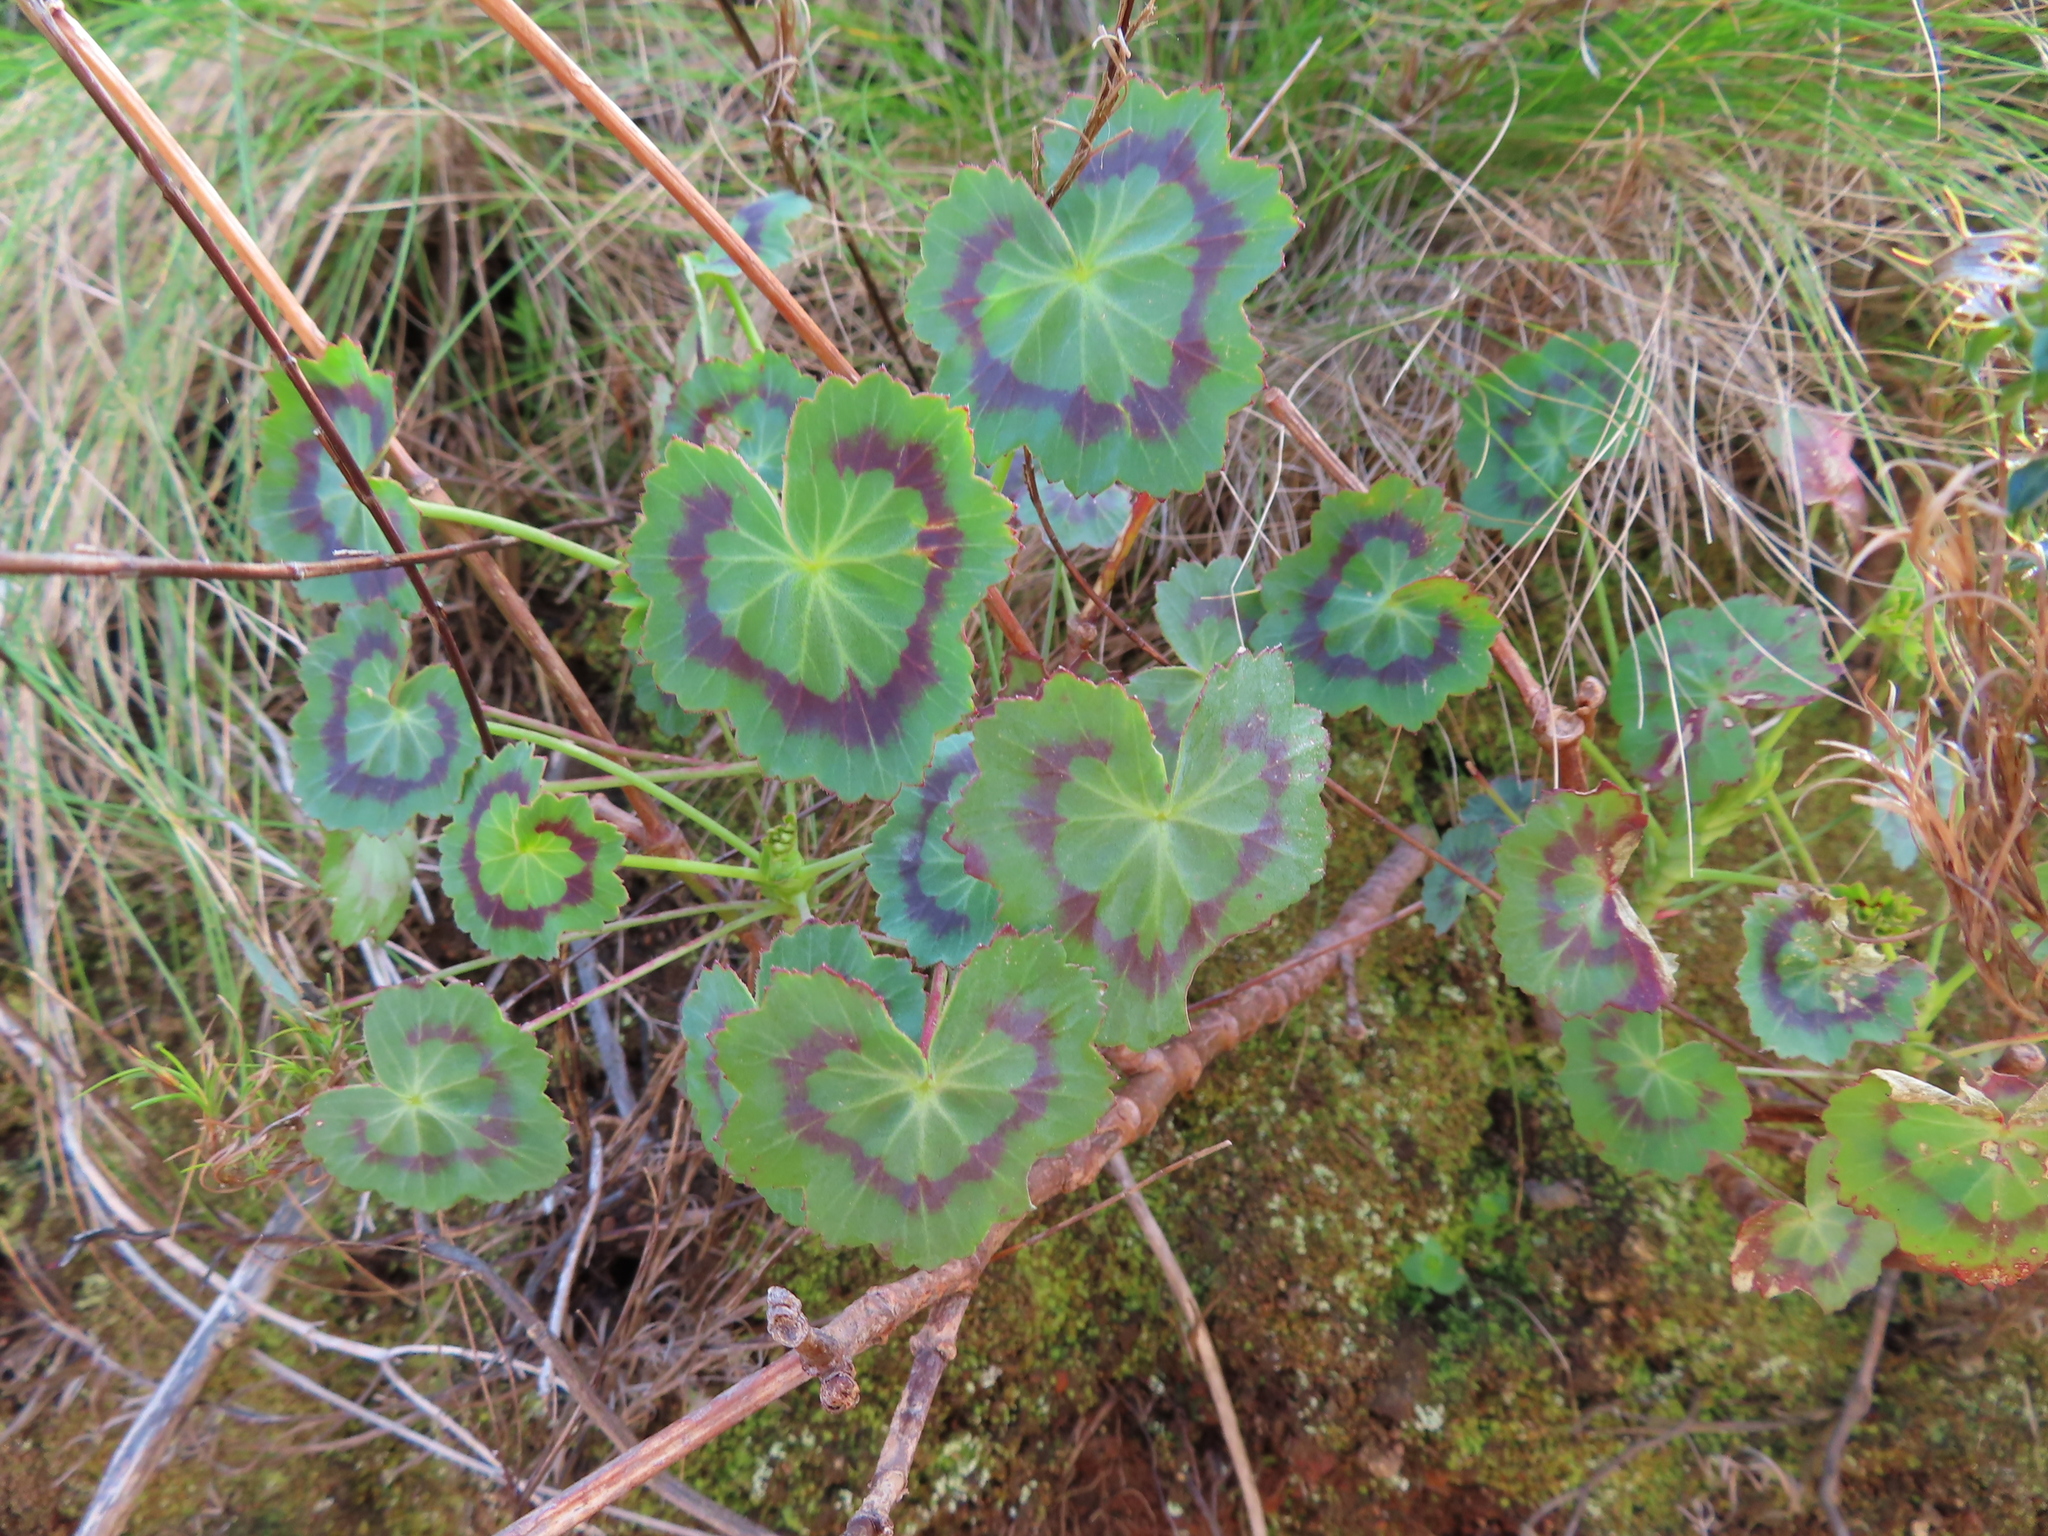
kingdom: Plantae
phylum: Tracheophyta
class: Magnoliopsida
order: Geraniales
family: Geraniaceae
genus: Pelargonium
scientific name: Pelargonium tabulare
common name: Table mountain pelargonium
